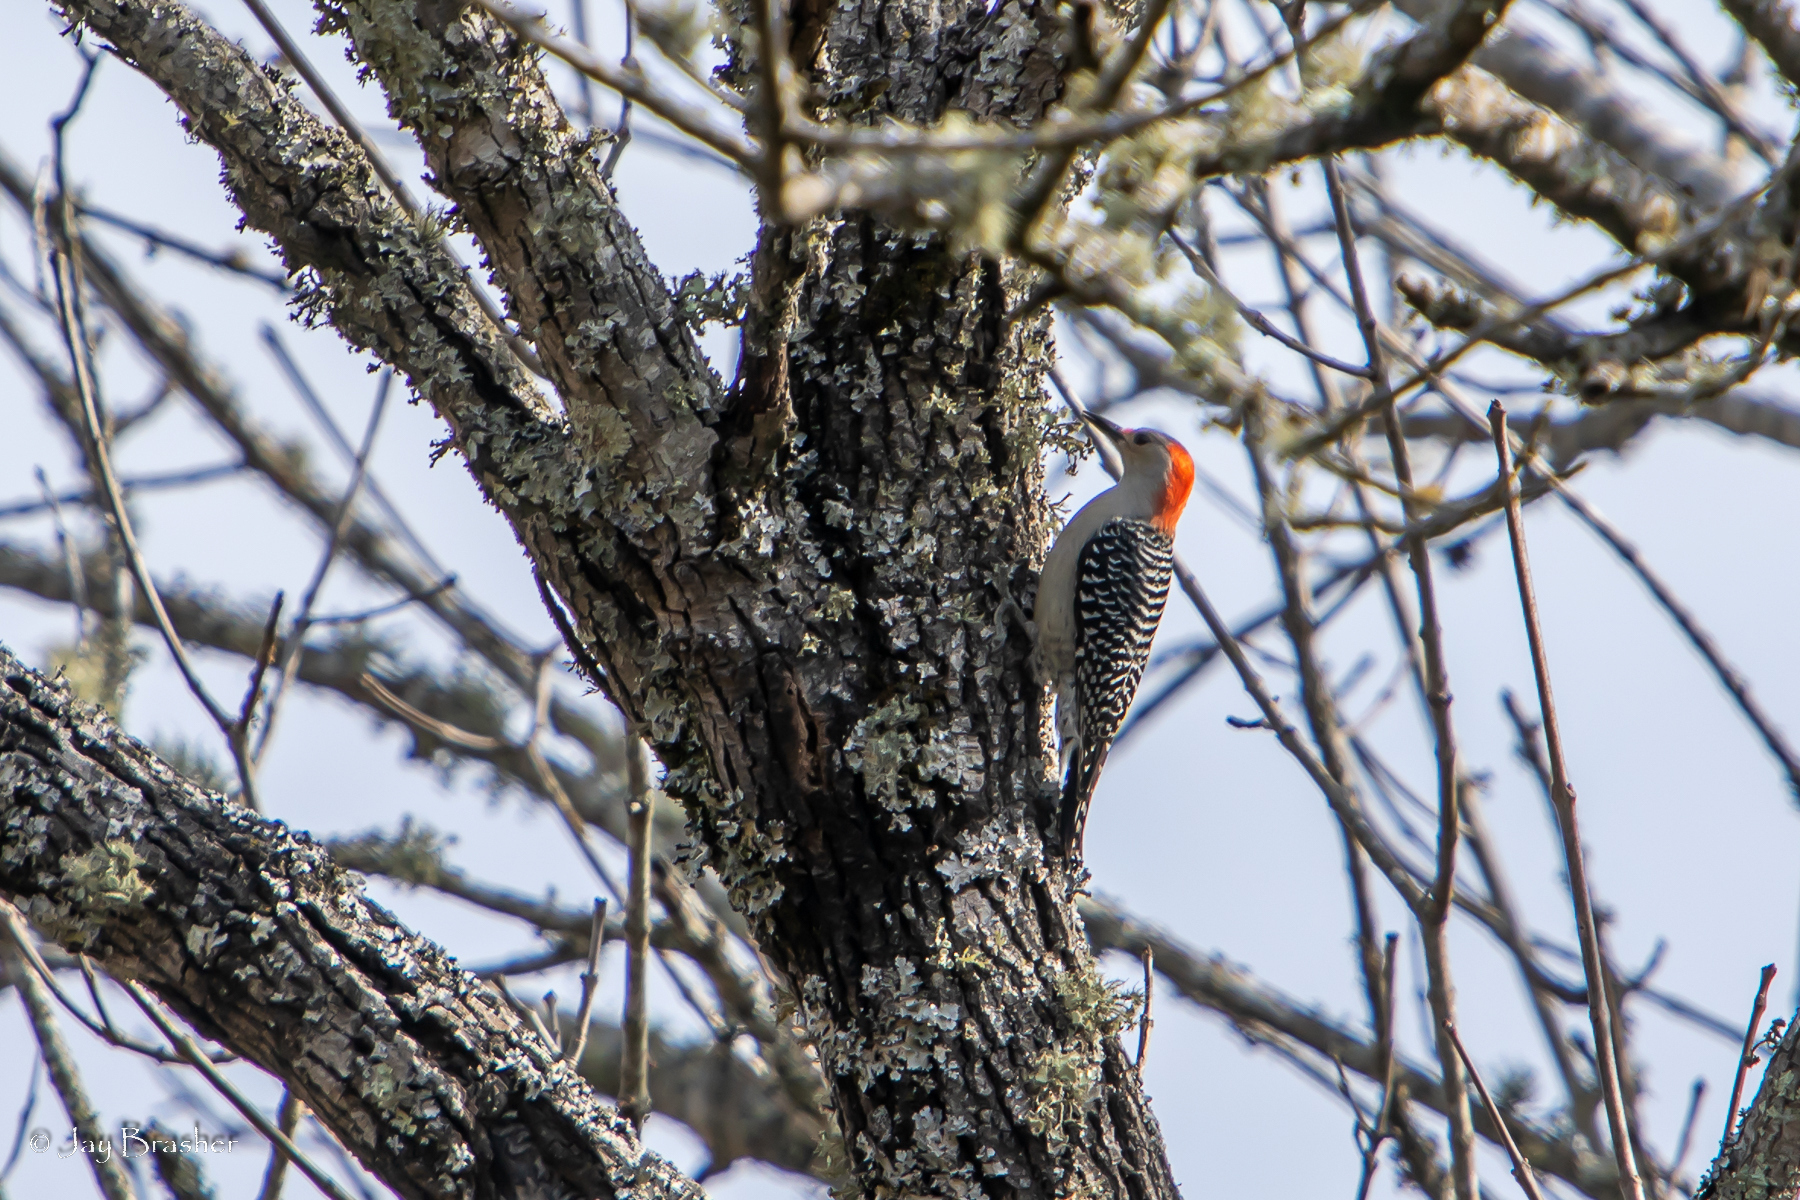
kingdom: Animalia
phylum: Chordata
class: Aves
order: Piciformes
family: Picidae
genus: Melanerpes
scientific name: Melanerpes carolinus
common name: Red-bellied woodpecker
